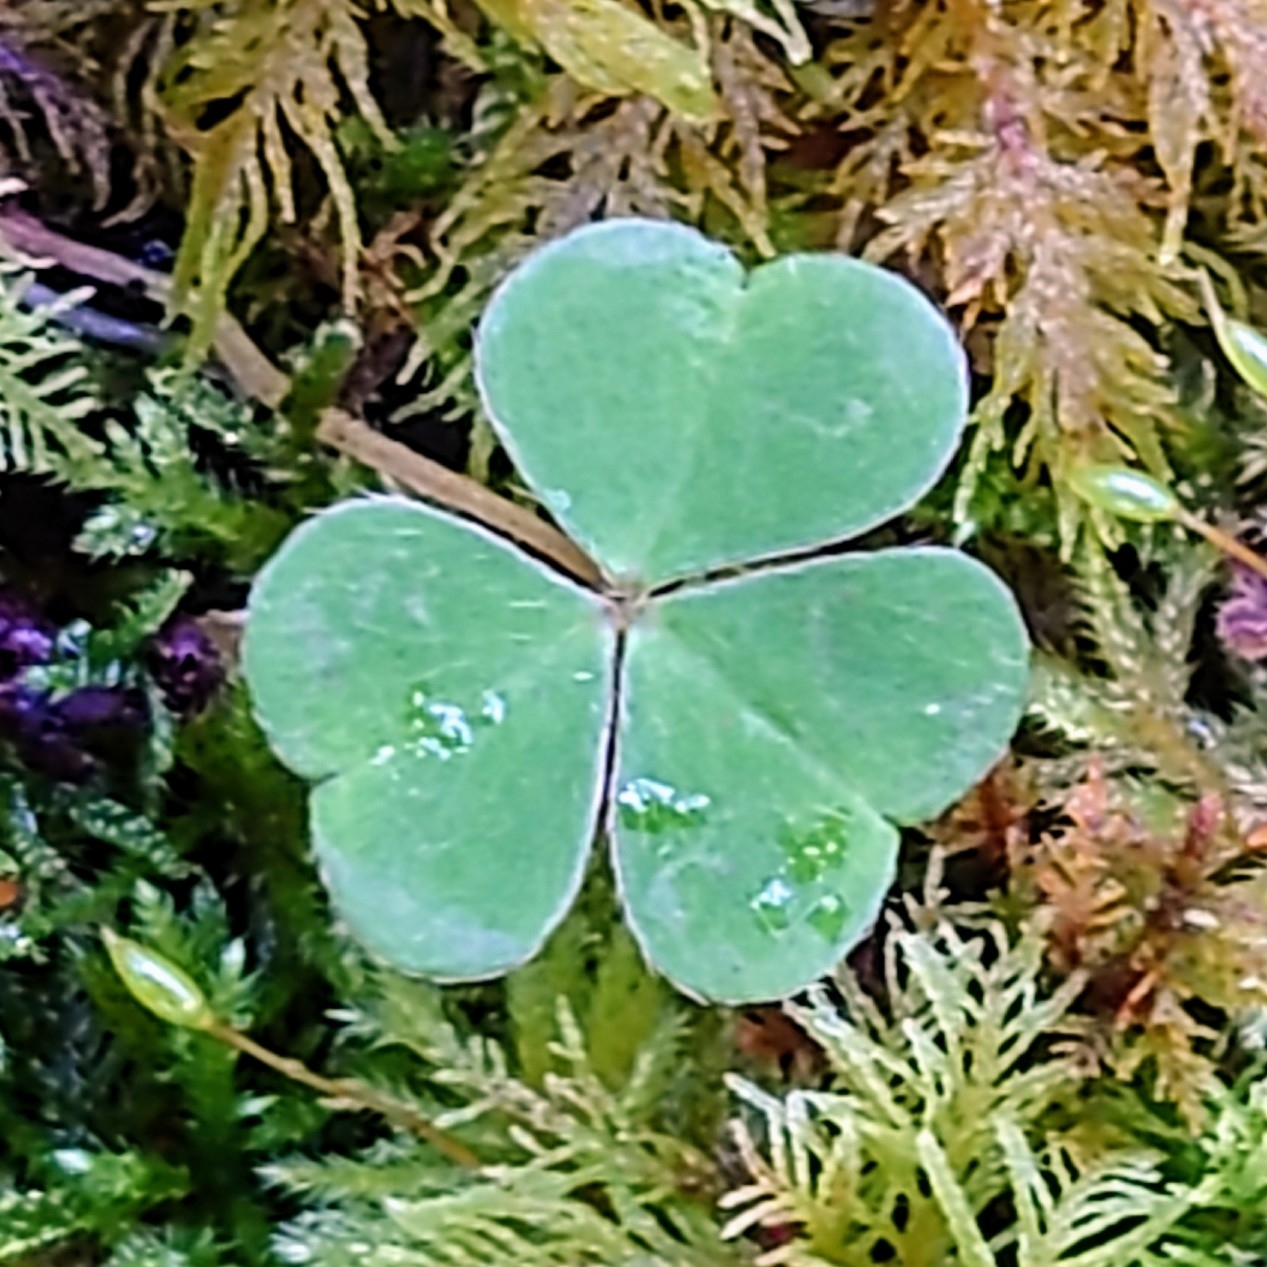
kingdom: Plantae
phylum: Tracheophyta
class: Magnoliopsida
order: Oxalidales
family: Oxalidaceae
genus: Oxalis
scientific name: Oxalis acetosella
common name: Wood-sorrel
